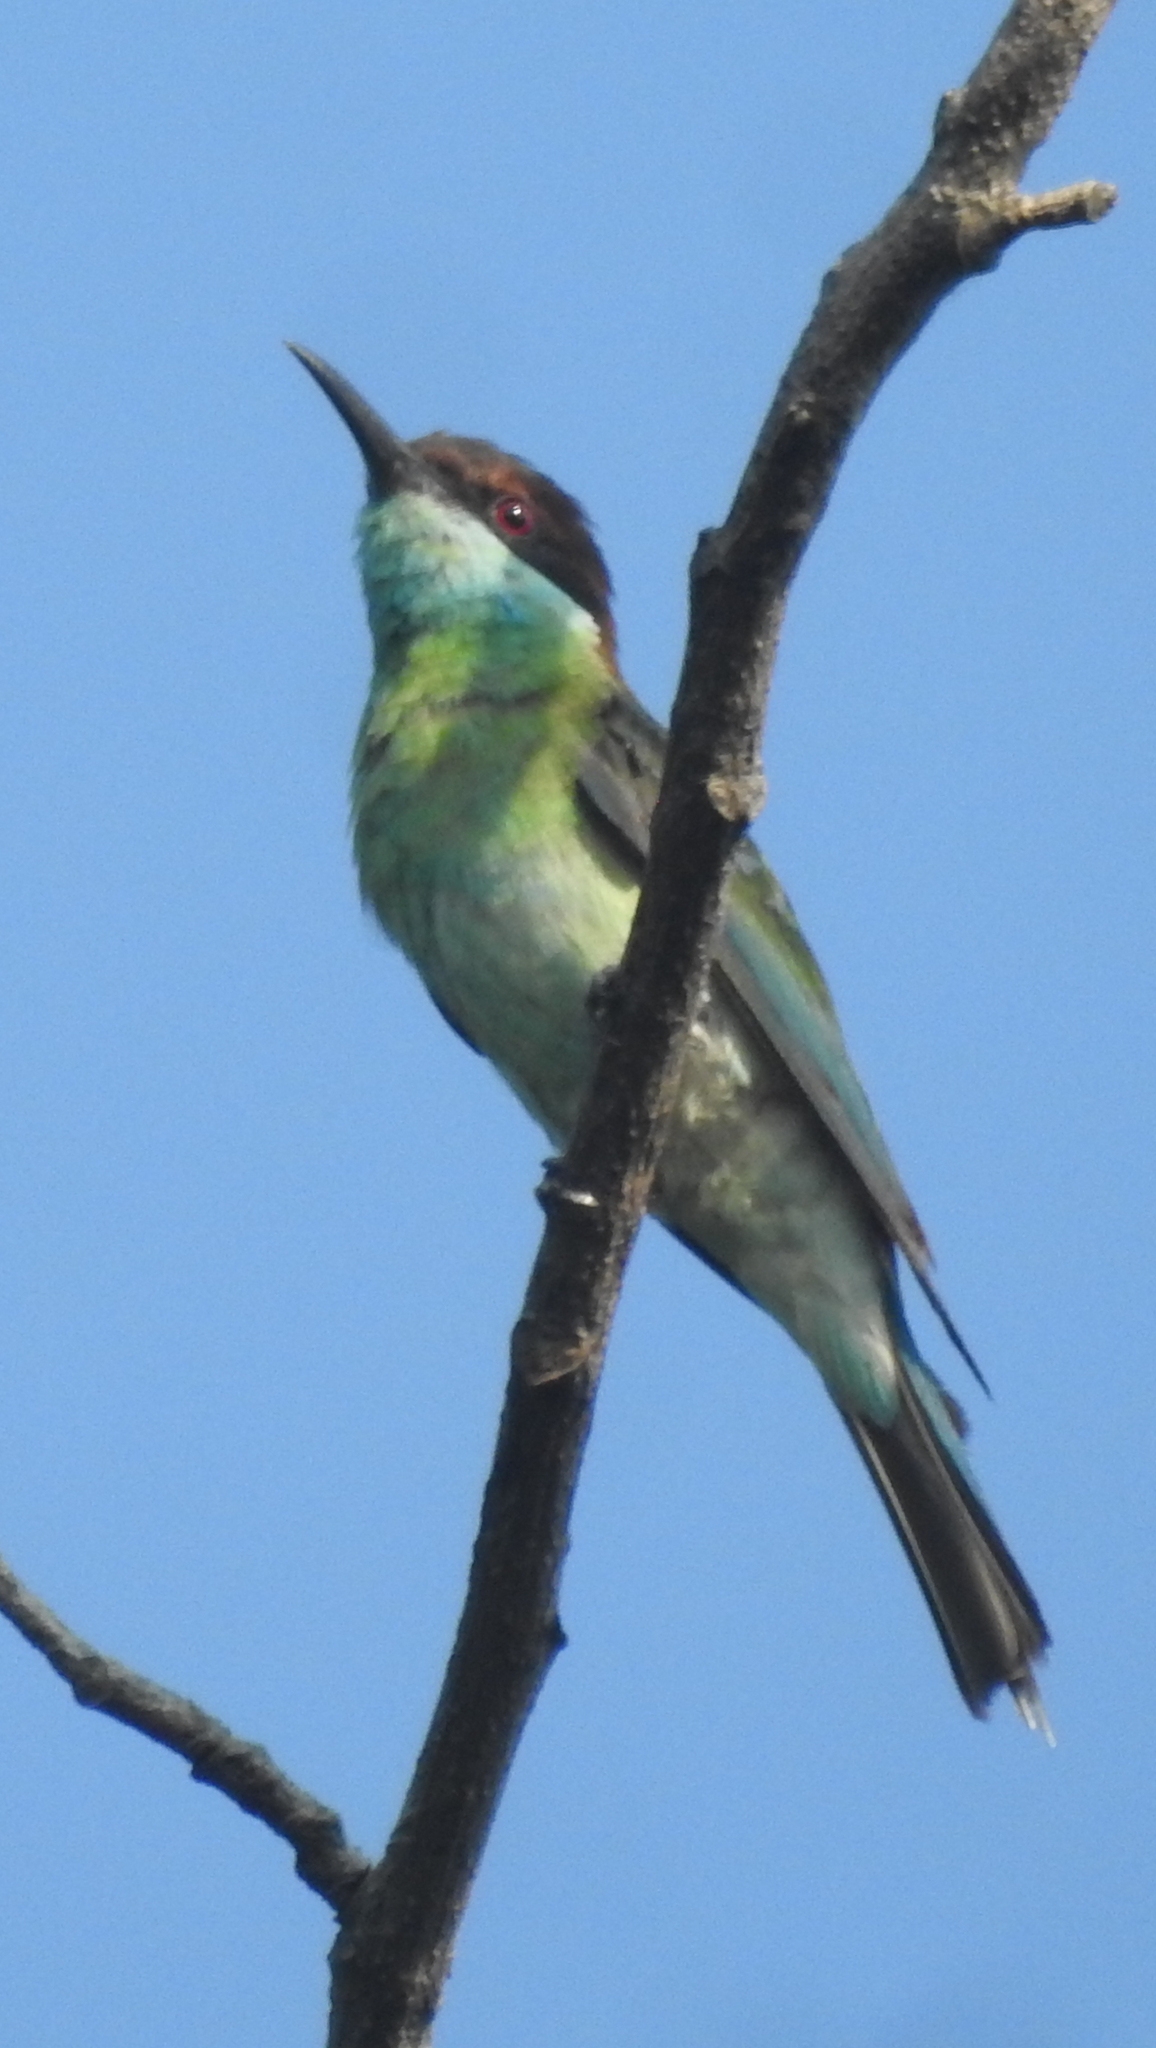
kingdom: Animalia
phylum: Chordata
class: Aves
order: Coraciiformes
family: Meropidae
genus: Merops
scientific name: Merops viridis
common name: Blue-throated bee-eater
